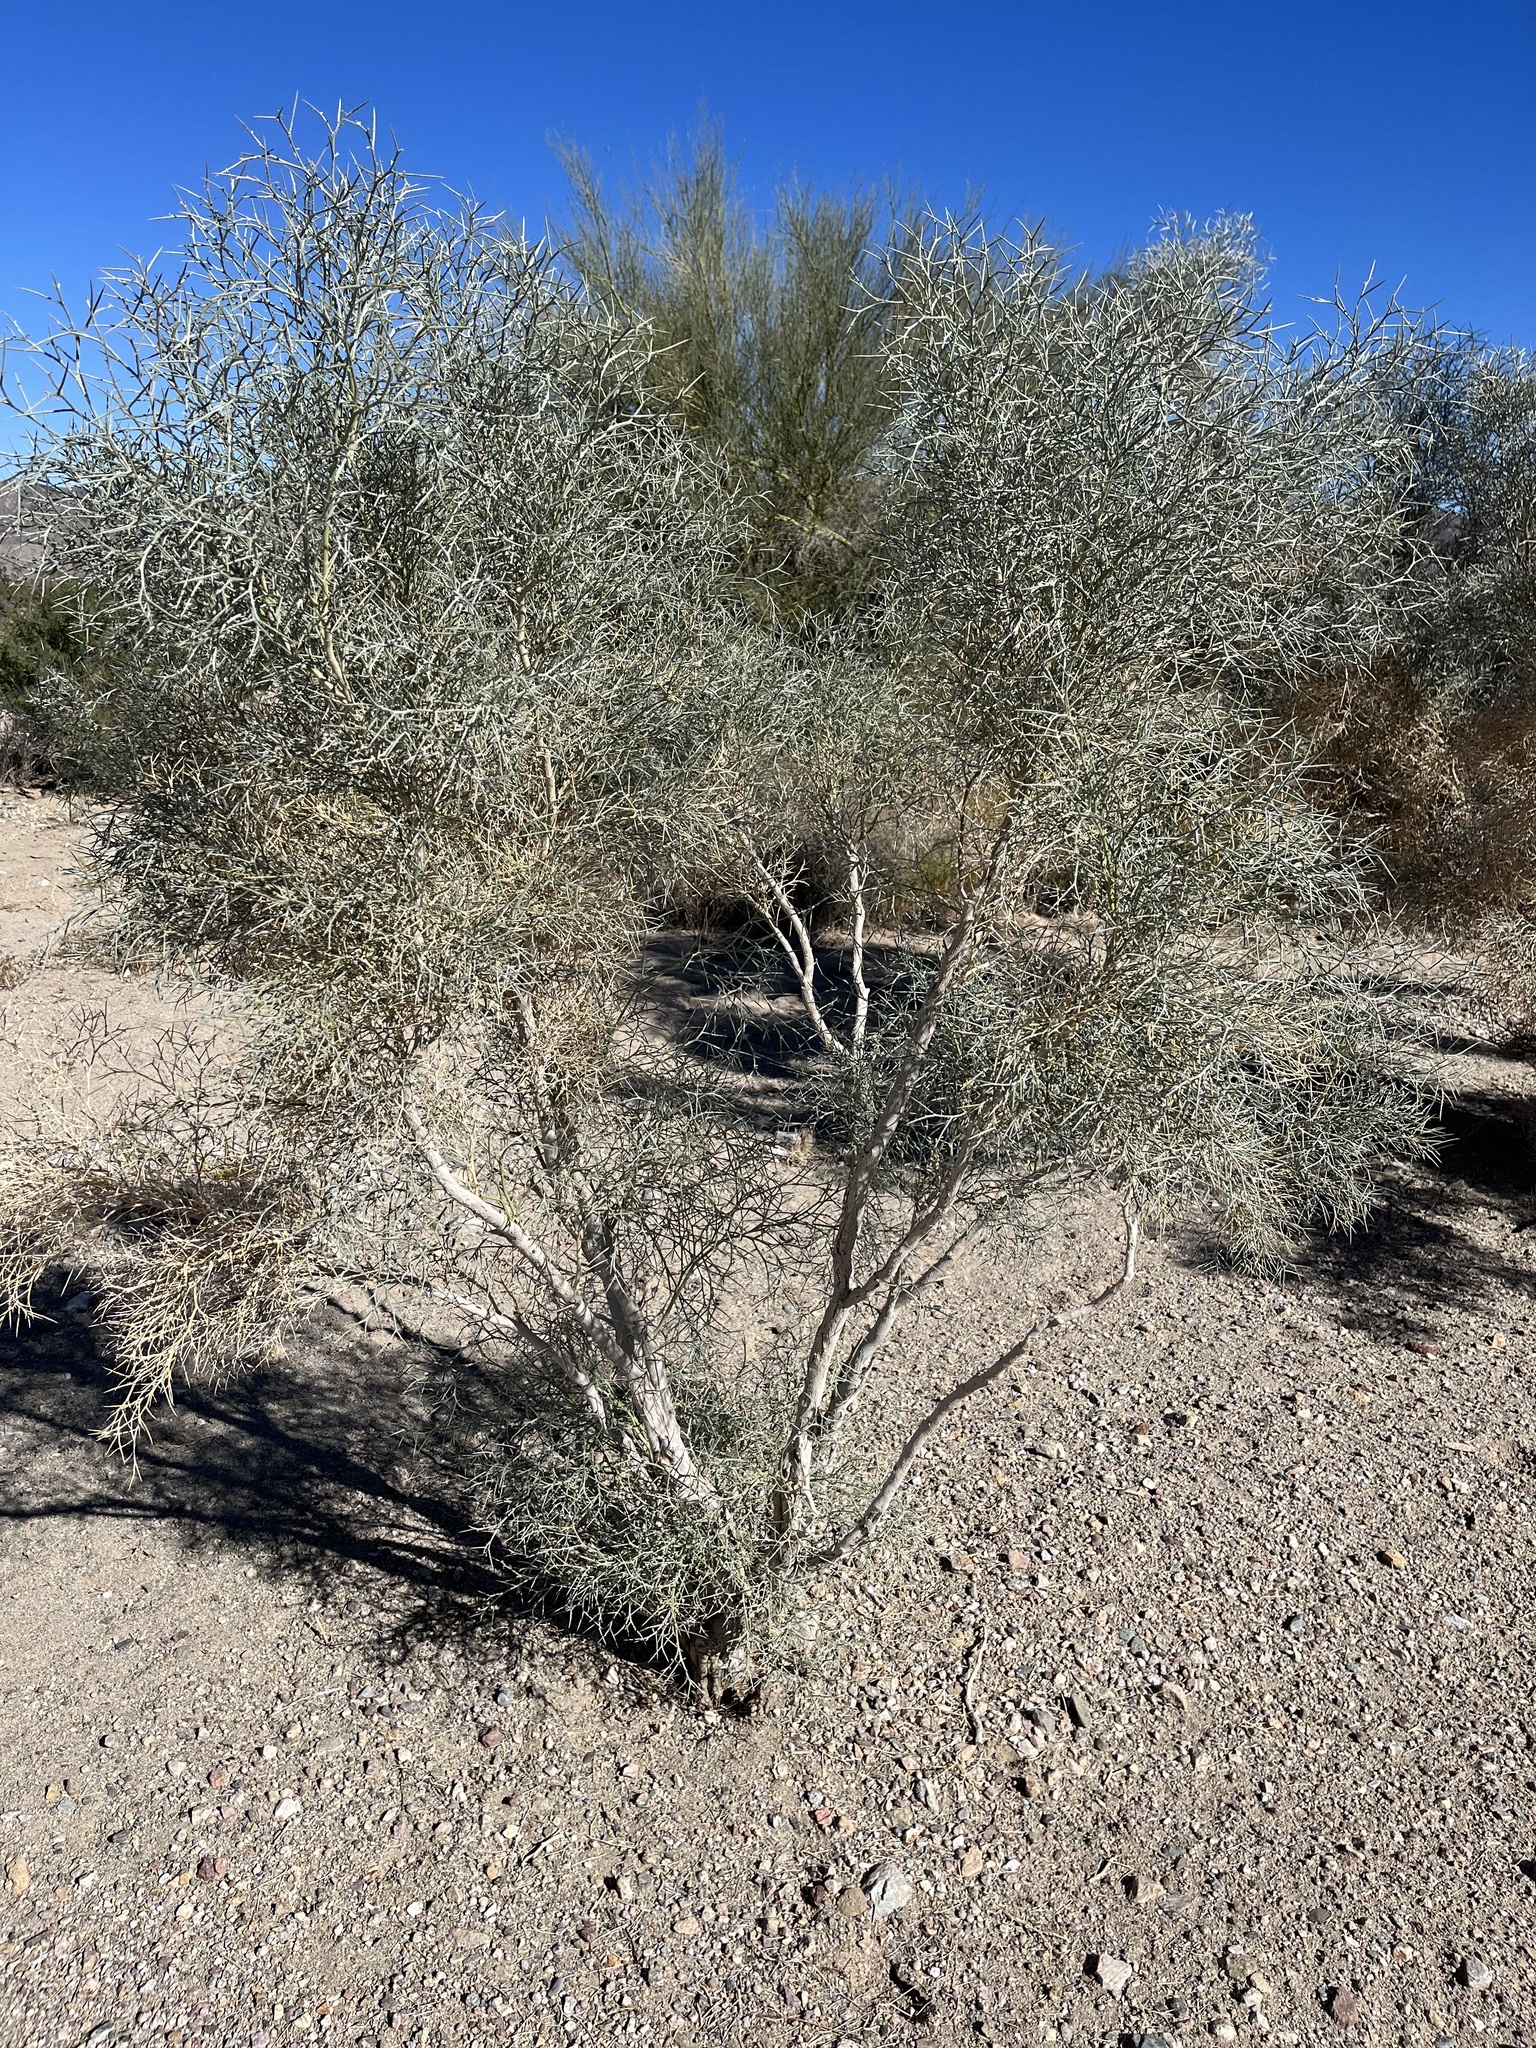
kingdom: Plantae
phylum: Tracheophyta
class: Magnoliopsida
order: Fabales
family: Fabaceae
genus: Psorothamnus
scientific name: Psorothamnus spinosus
